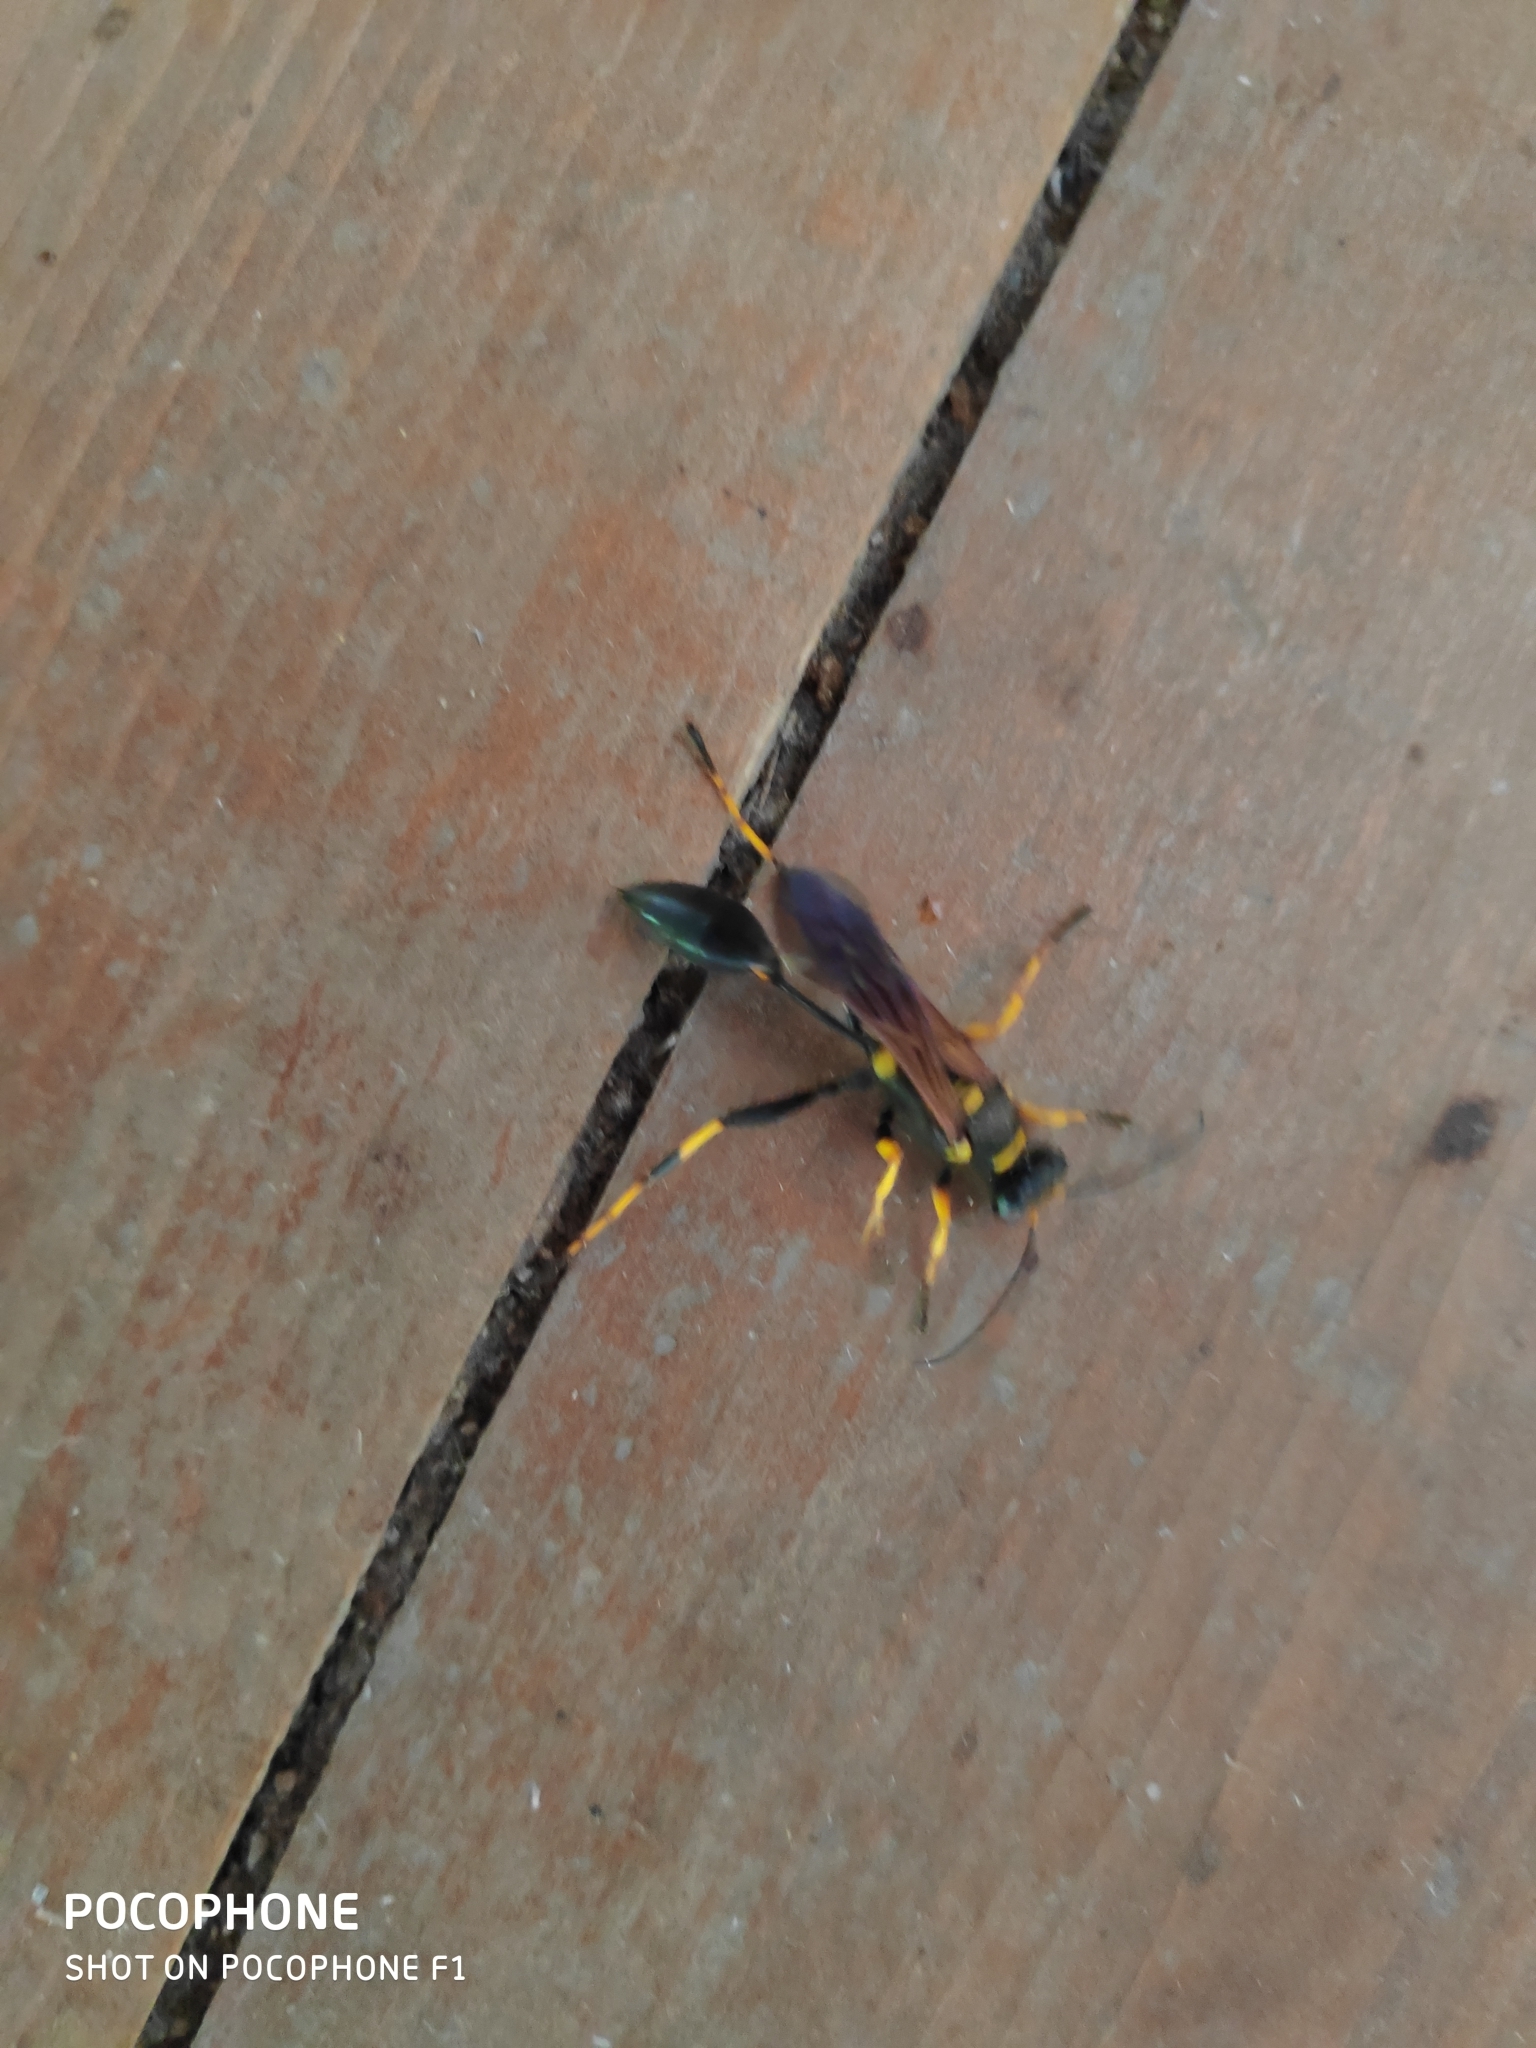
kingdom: Animalia
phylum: Arthropoda
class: Insecta
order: Hymenoptera
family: Sphecidae
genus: Sceliphron
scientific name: Sceliphron caementarium
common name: Mud dauber
